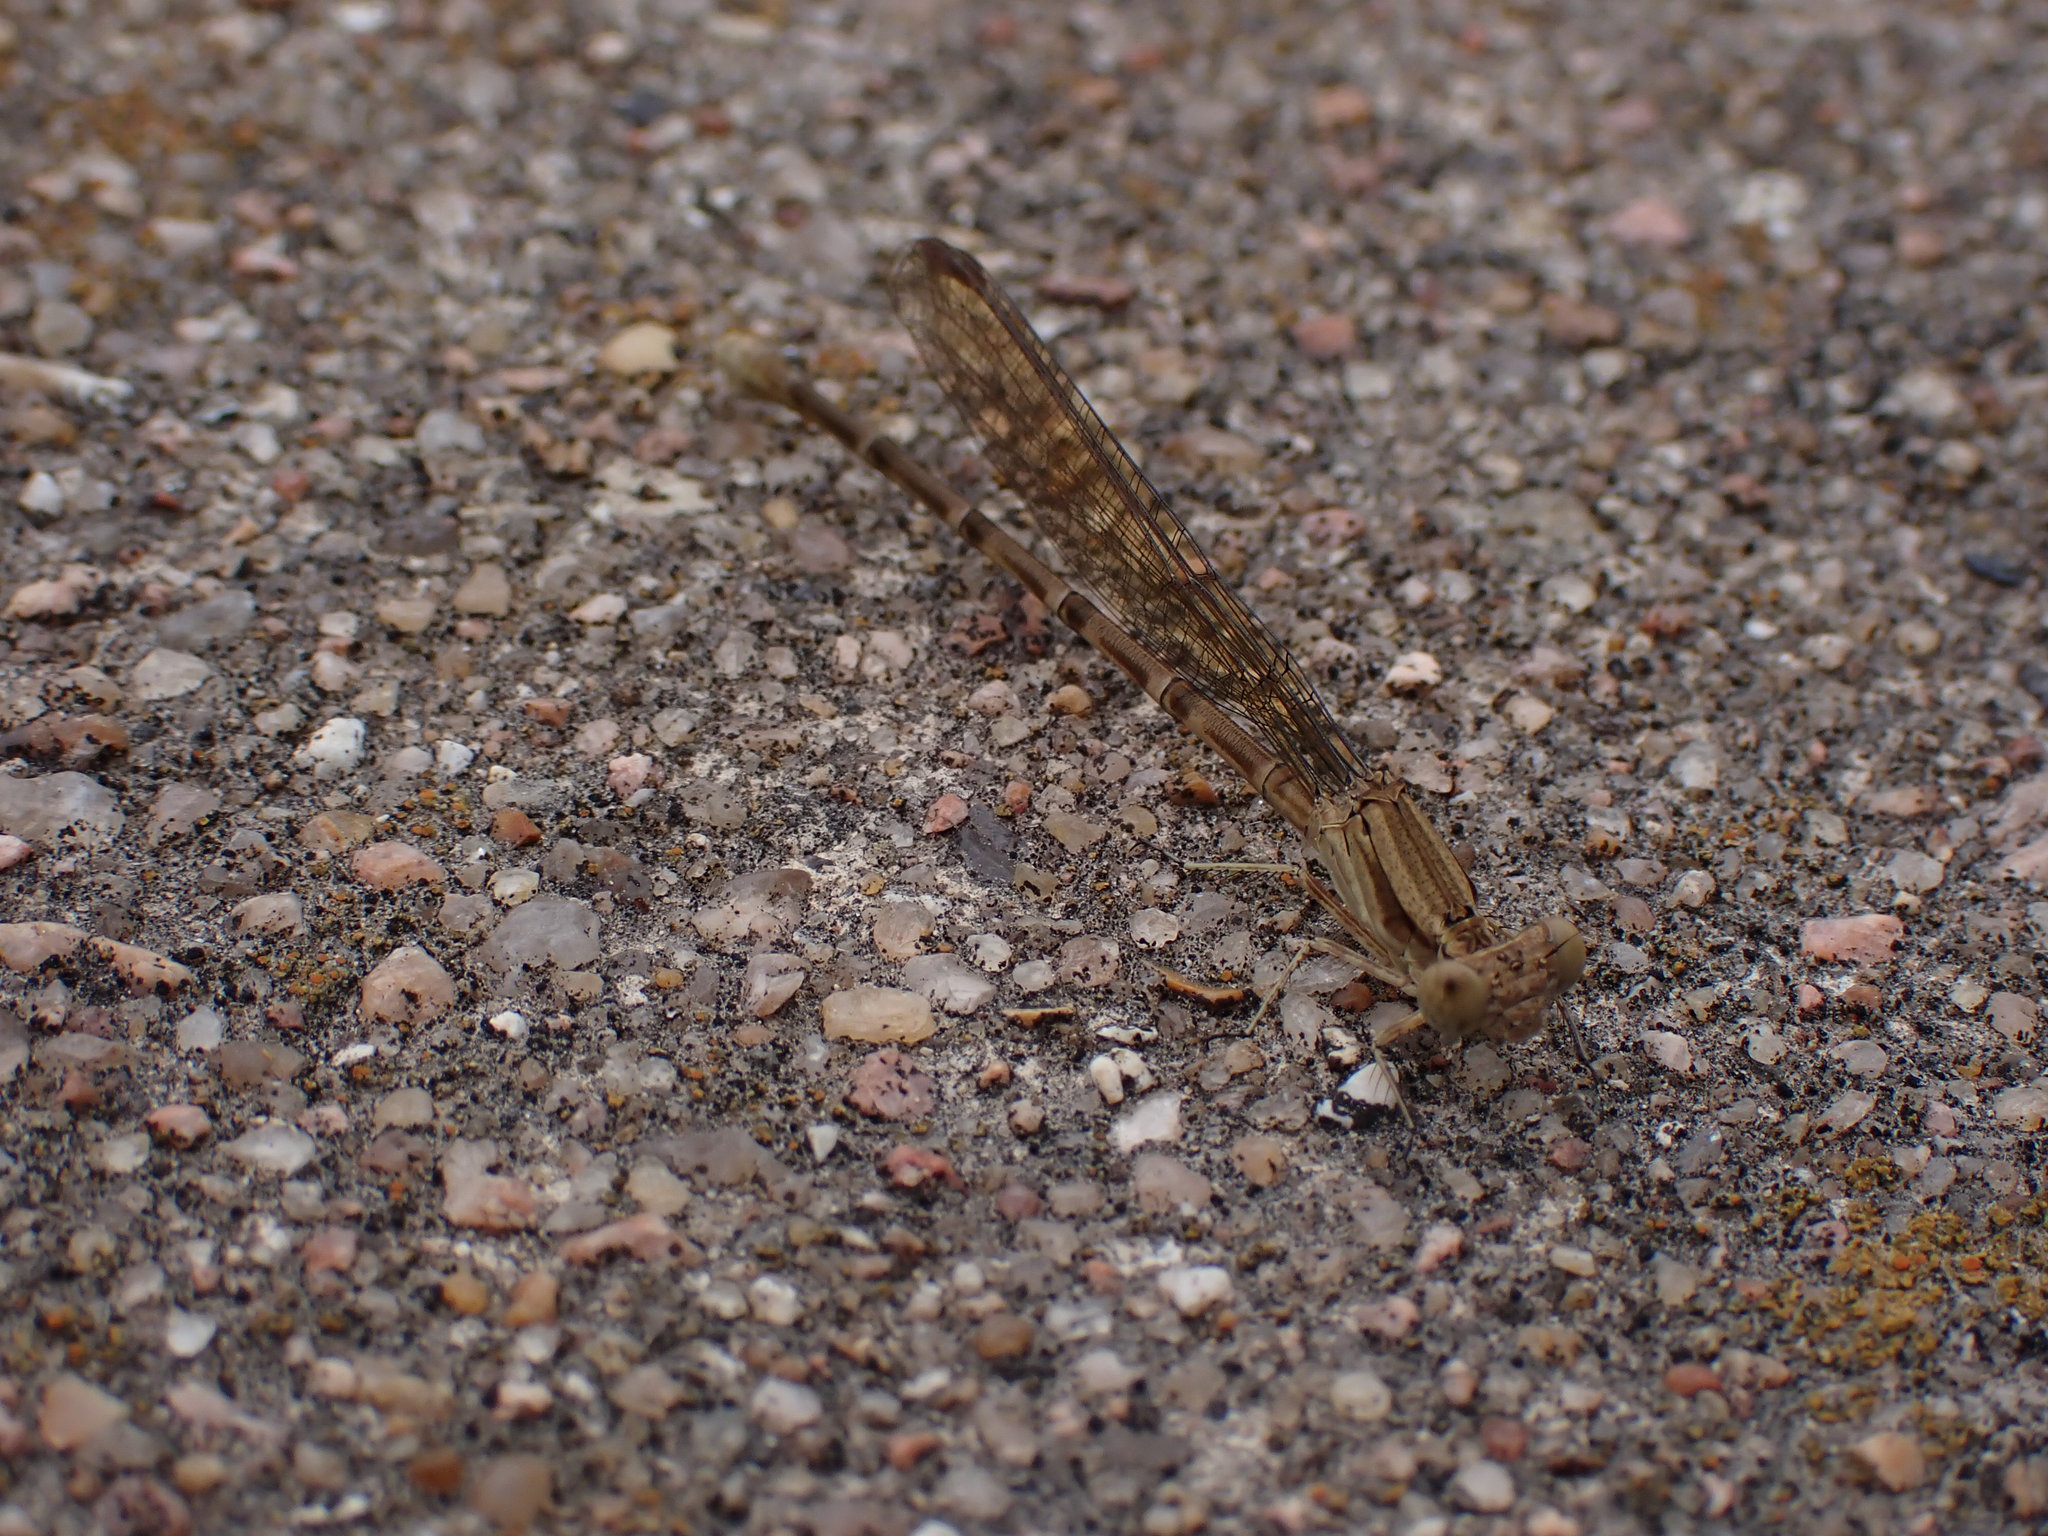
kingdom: Animalia
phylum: Arthropoda
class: Insecta
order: Odonata
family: Coenagrionidae
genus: Argia
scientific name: Argia sedula
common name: Blue-ringed dancer
